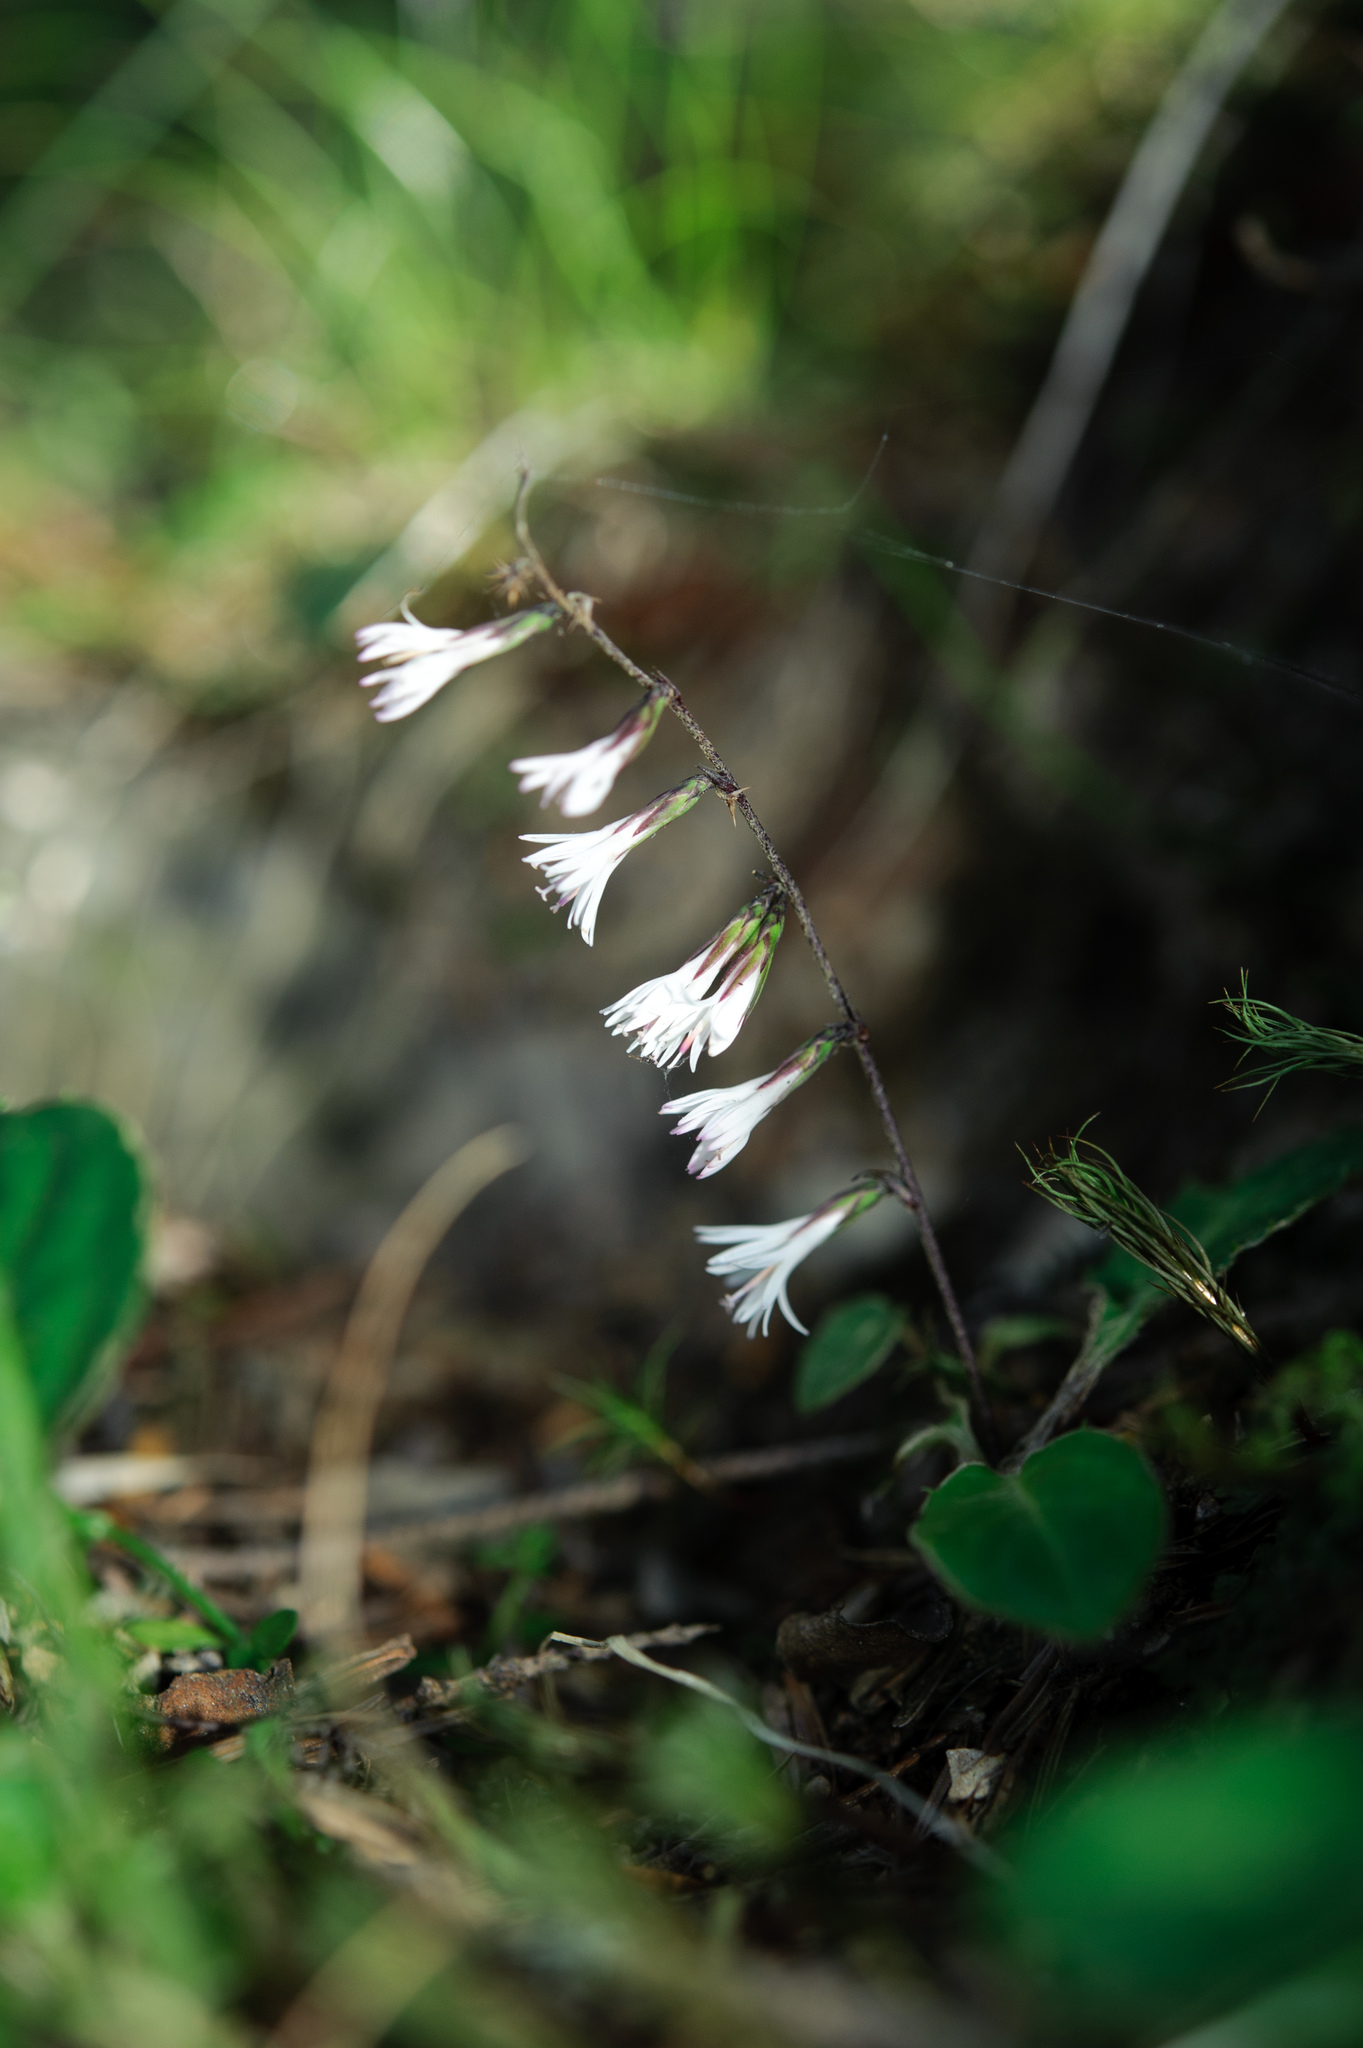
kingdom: Plantae
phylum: Tracheophyta
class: Magnoliopsida
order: Asterales
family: Asteraceae
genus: Ainsliaea
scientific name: Ainsliaea henryi
